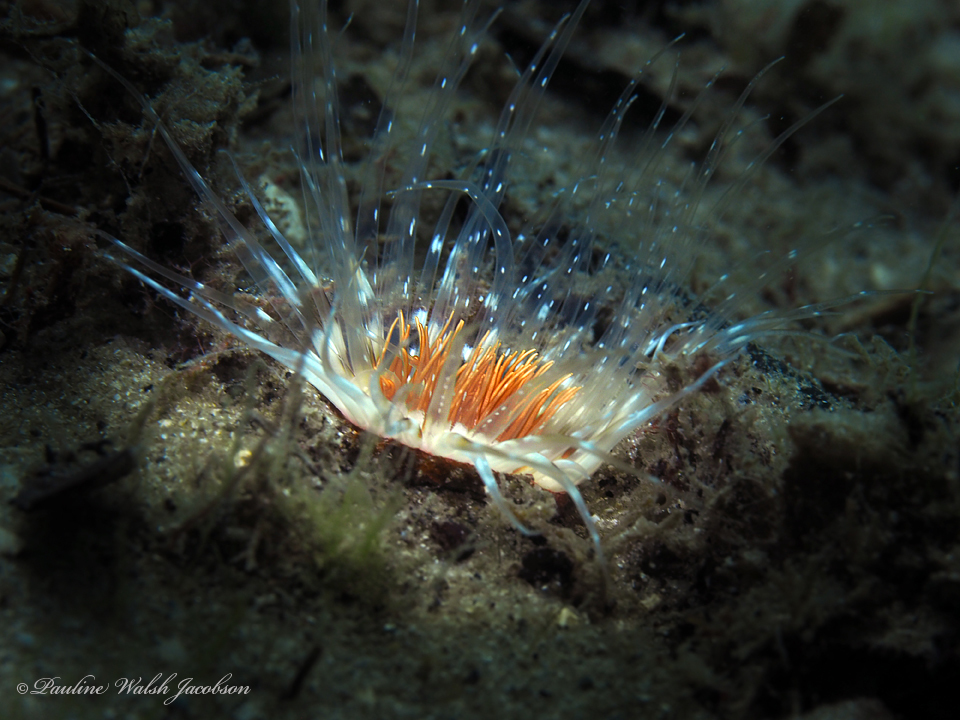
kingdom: Animalia
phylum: Cnidaria
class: Anthozoa
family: Cerianthidae
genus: Ceriantheopsis
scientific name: Ceriantheopsis americana
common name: American tube-dwelling anemone
